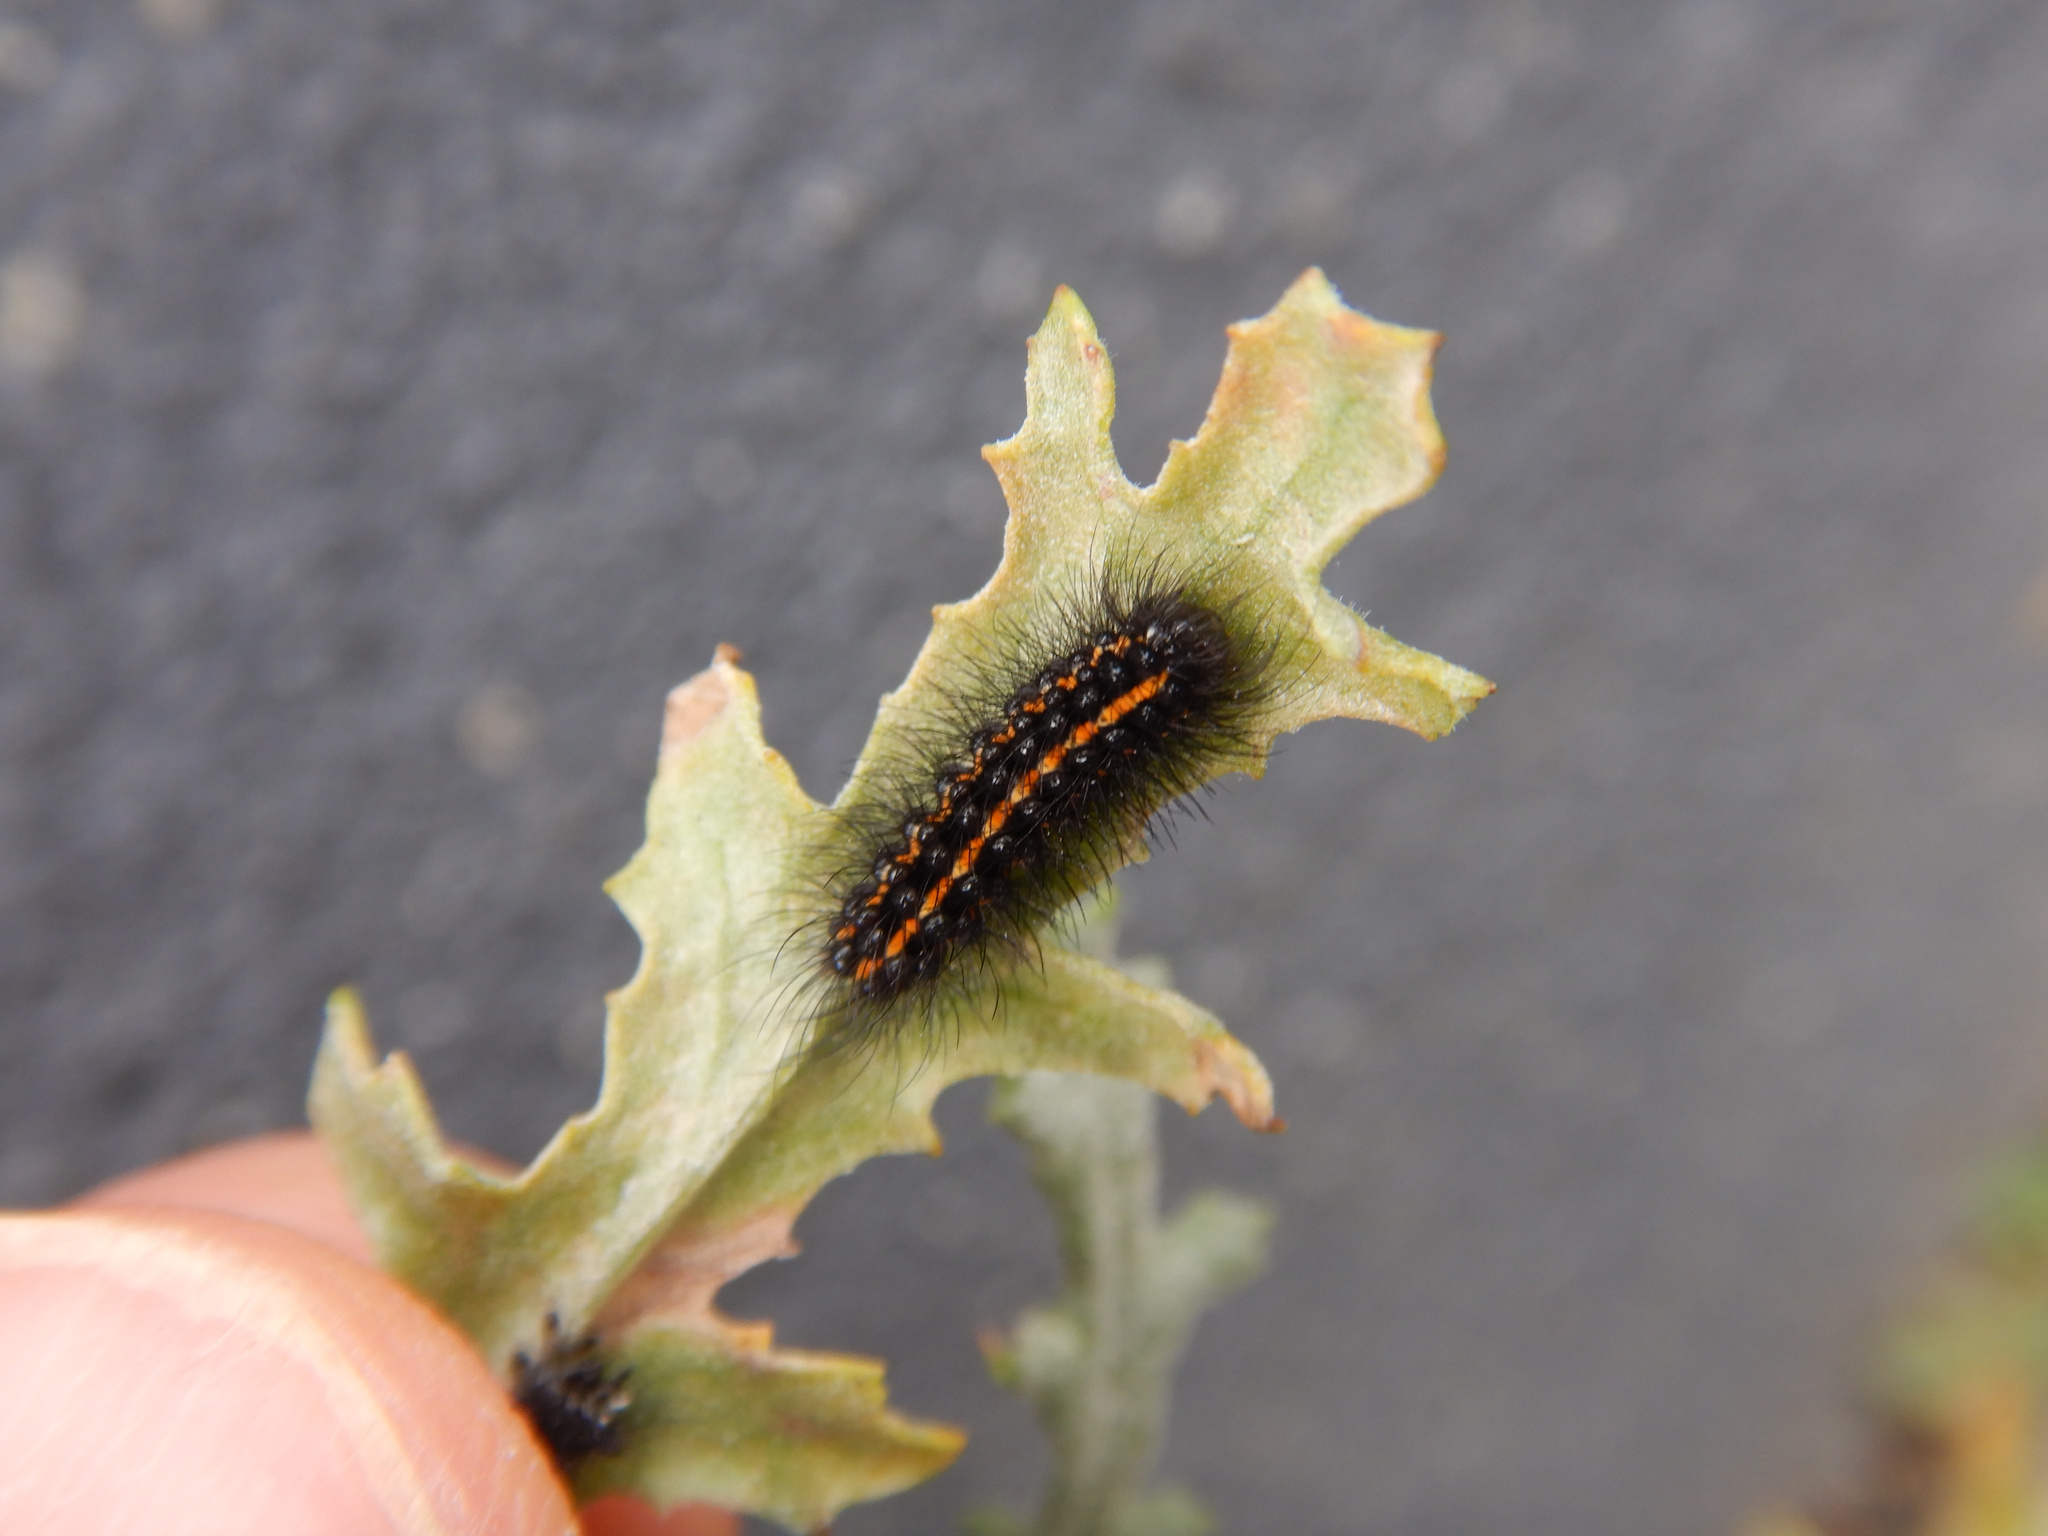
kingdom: Animalia
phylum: Arthropoda
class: Insecta
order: Lepidoptera
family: Erebidae
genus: Nyctemera
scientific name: Nyctemera annulatum
